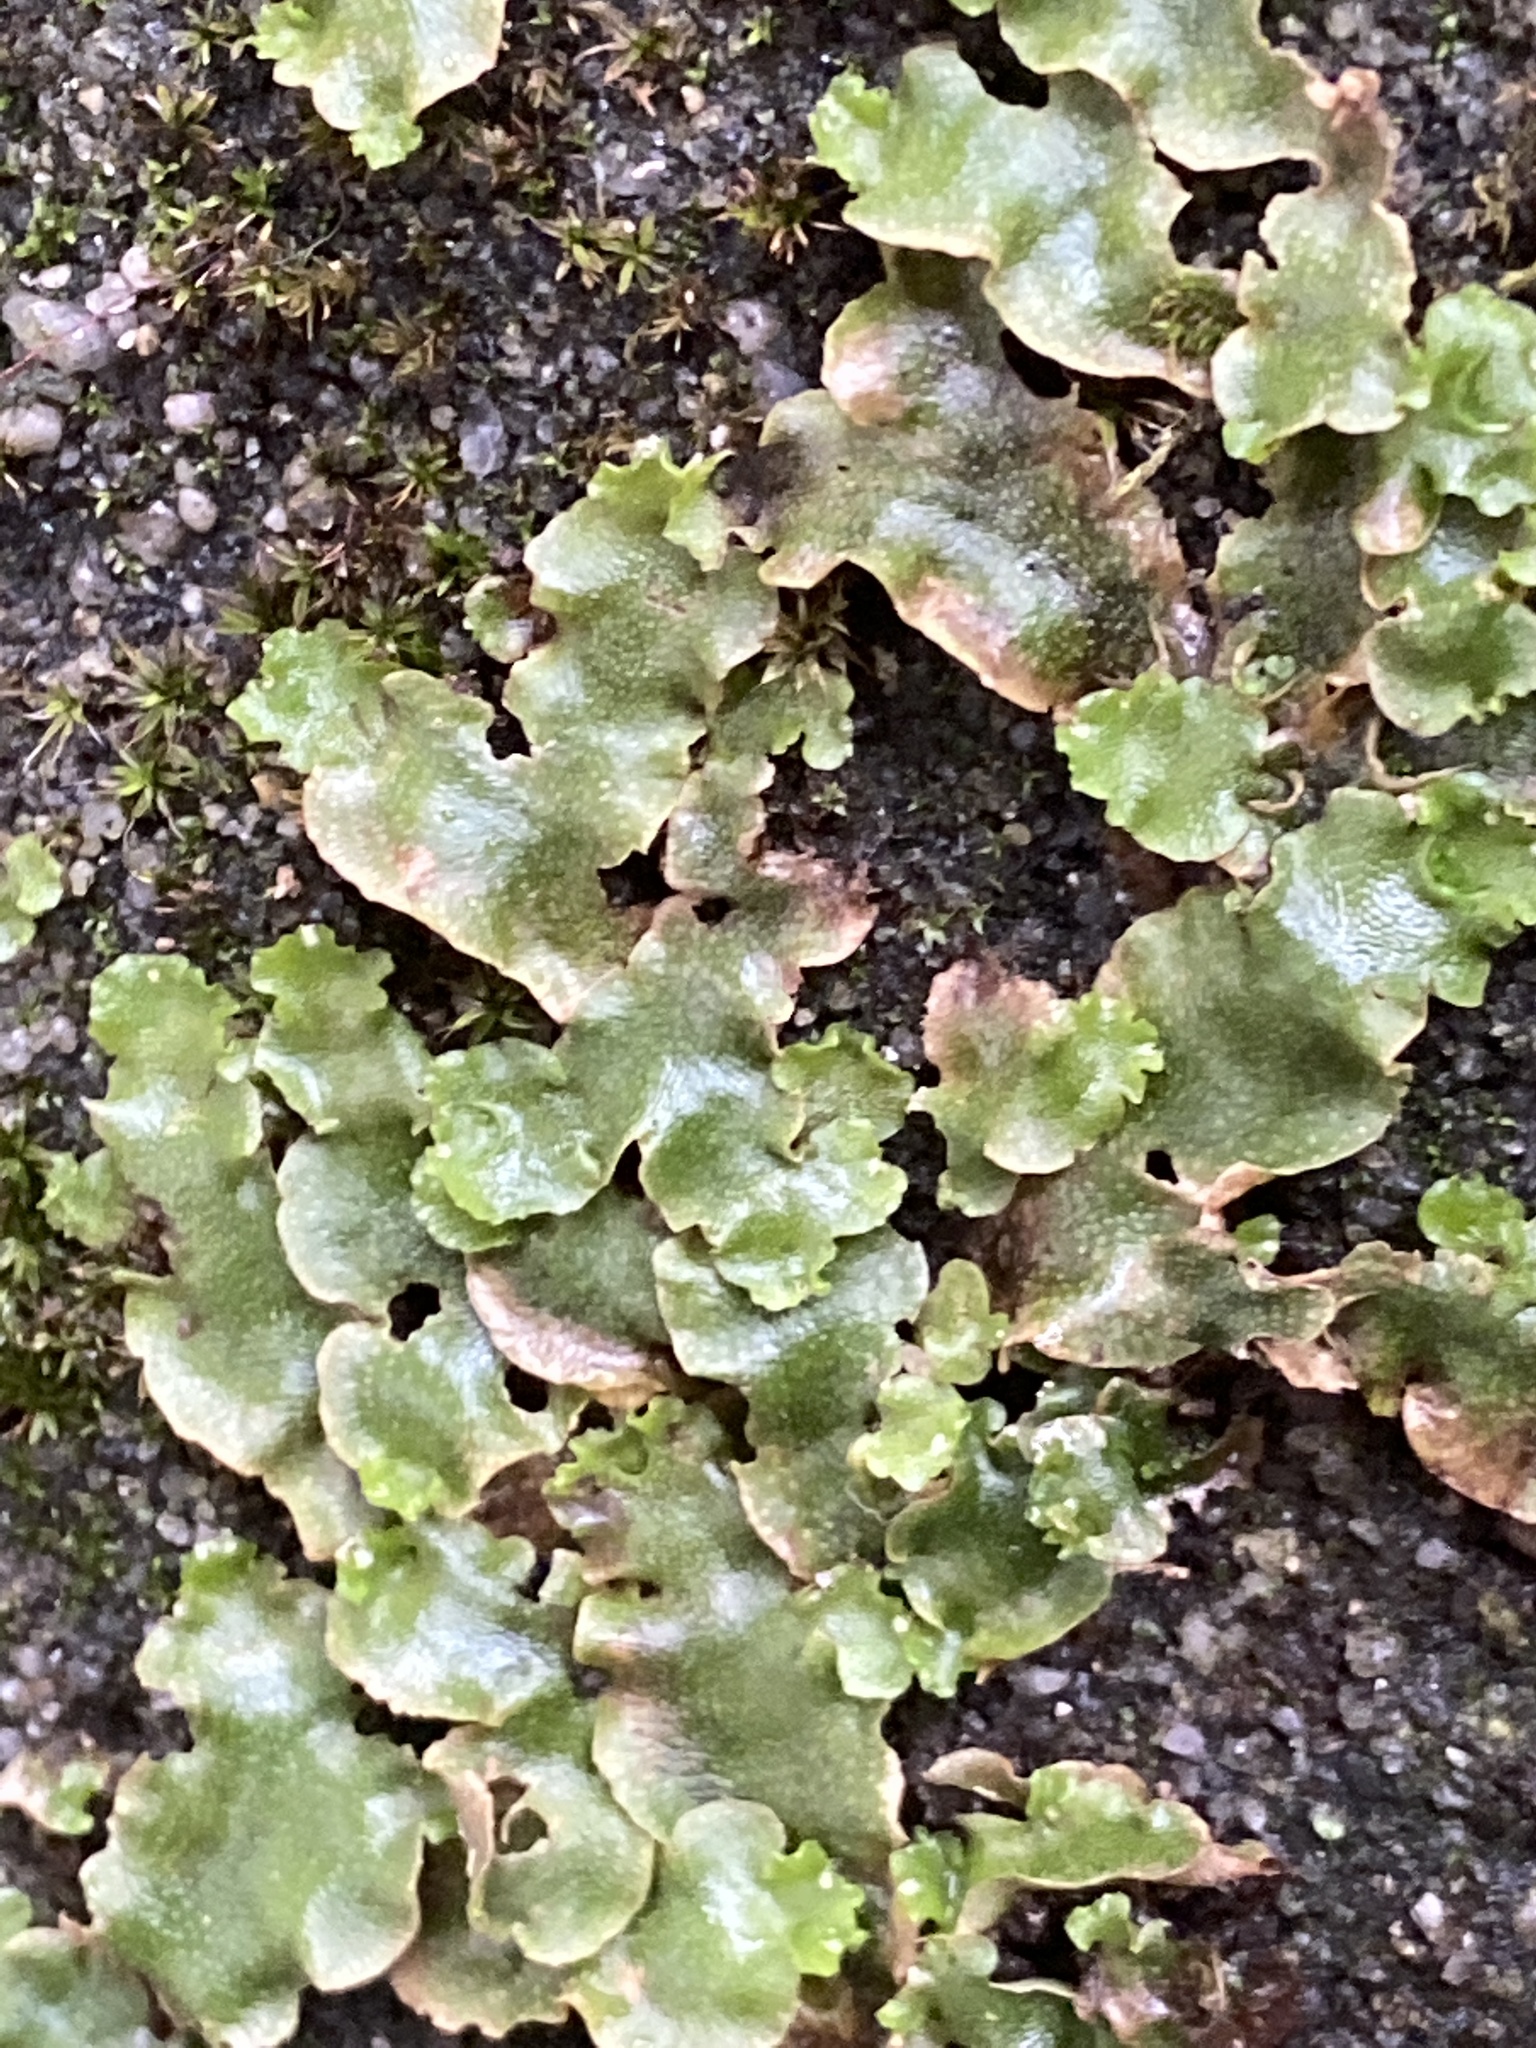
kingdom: Plantae
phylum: Marchantiophyta
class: Marchantiopsida
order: Lunulariales
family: Lunulariaceae
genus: Lunularia
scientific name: Lunularia cruciata
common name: Crescent-cup liverwort
